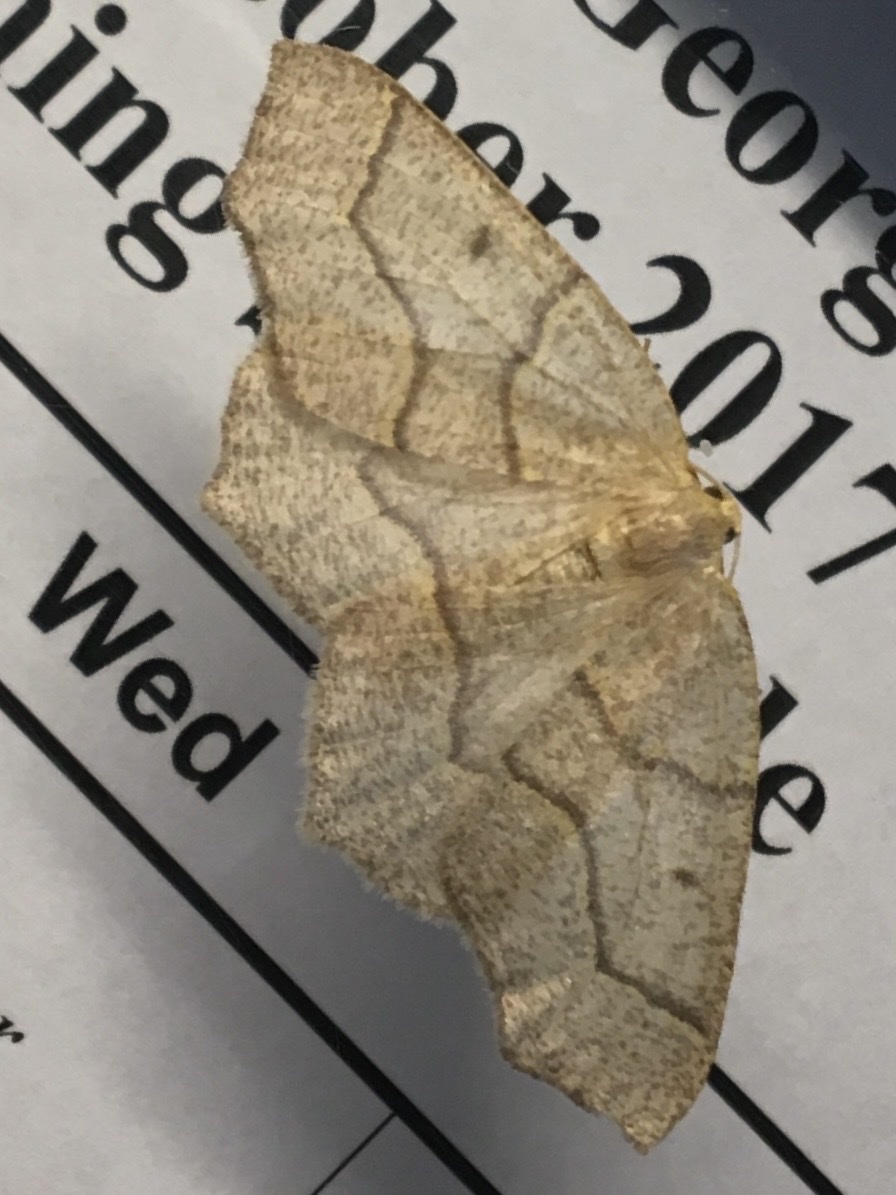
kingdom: Animalia
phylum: Arthropoda
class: Insecta
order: Lepidoptera
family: Geometridae
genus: Lambdina
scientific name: Lambdina fiscellaria
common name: Hemlock looper
